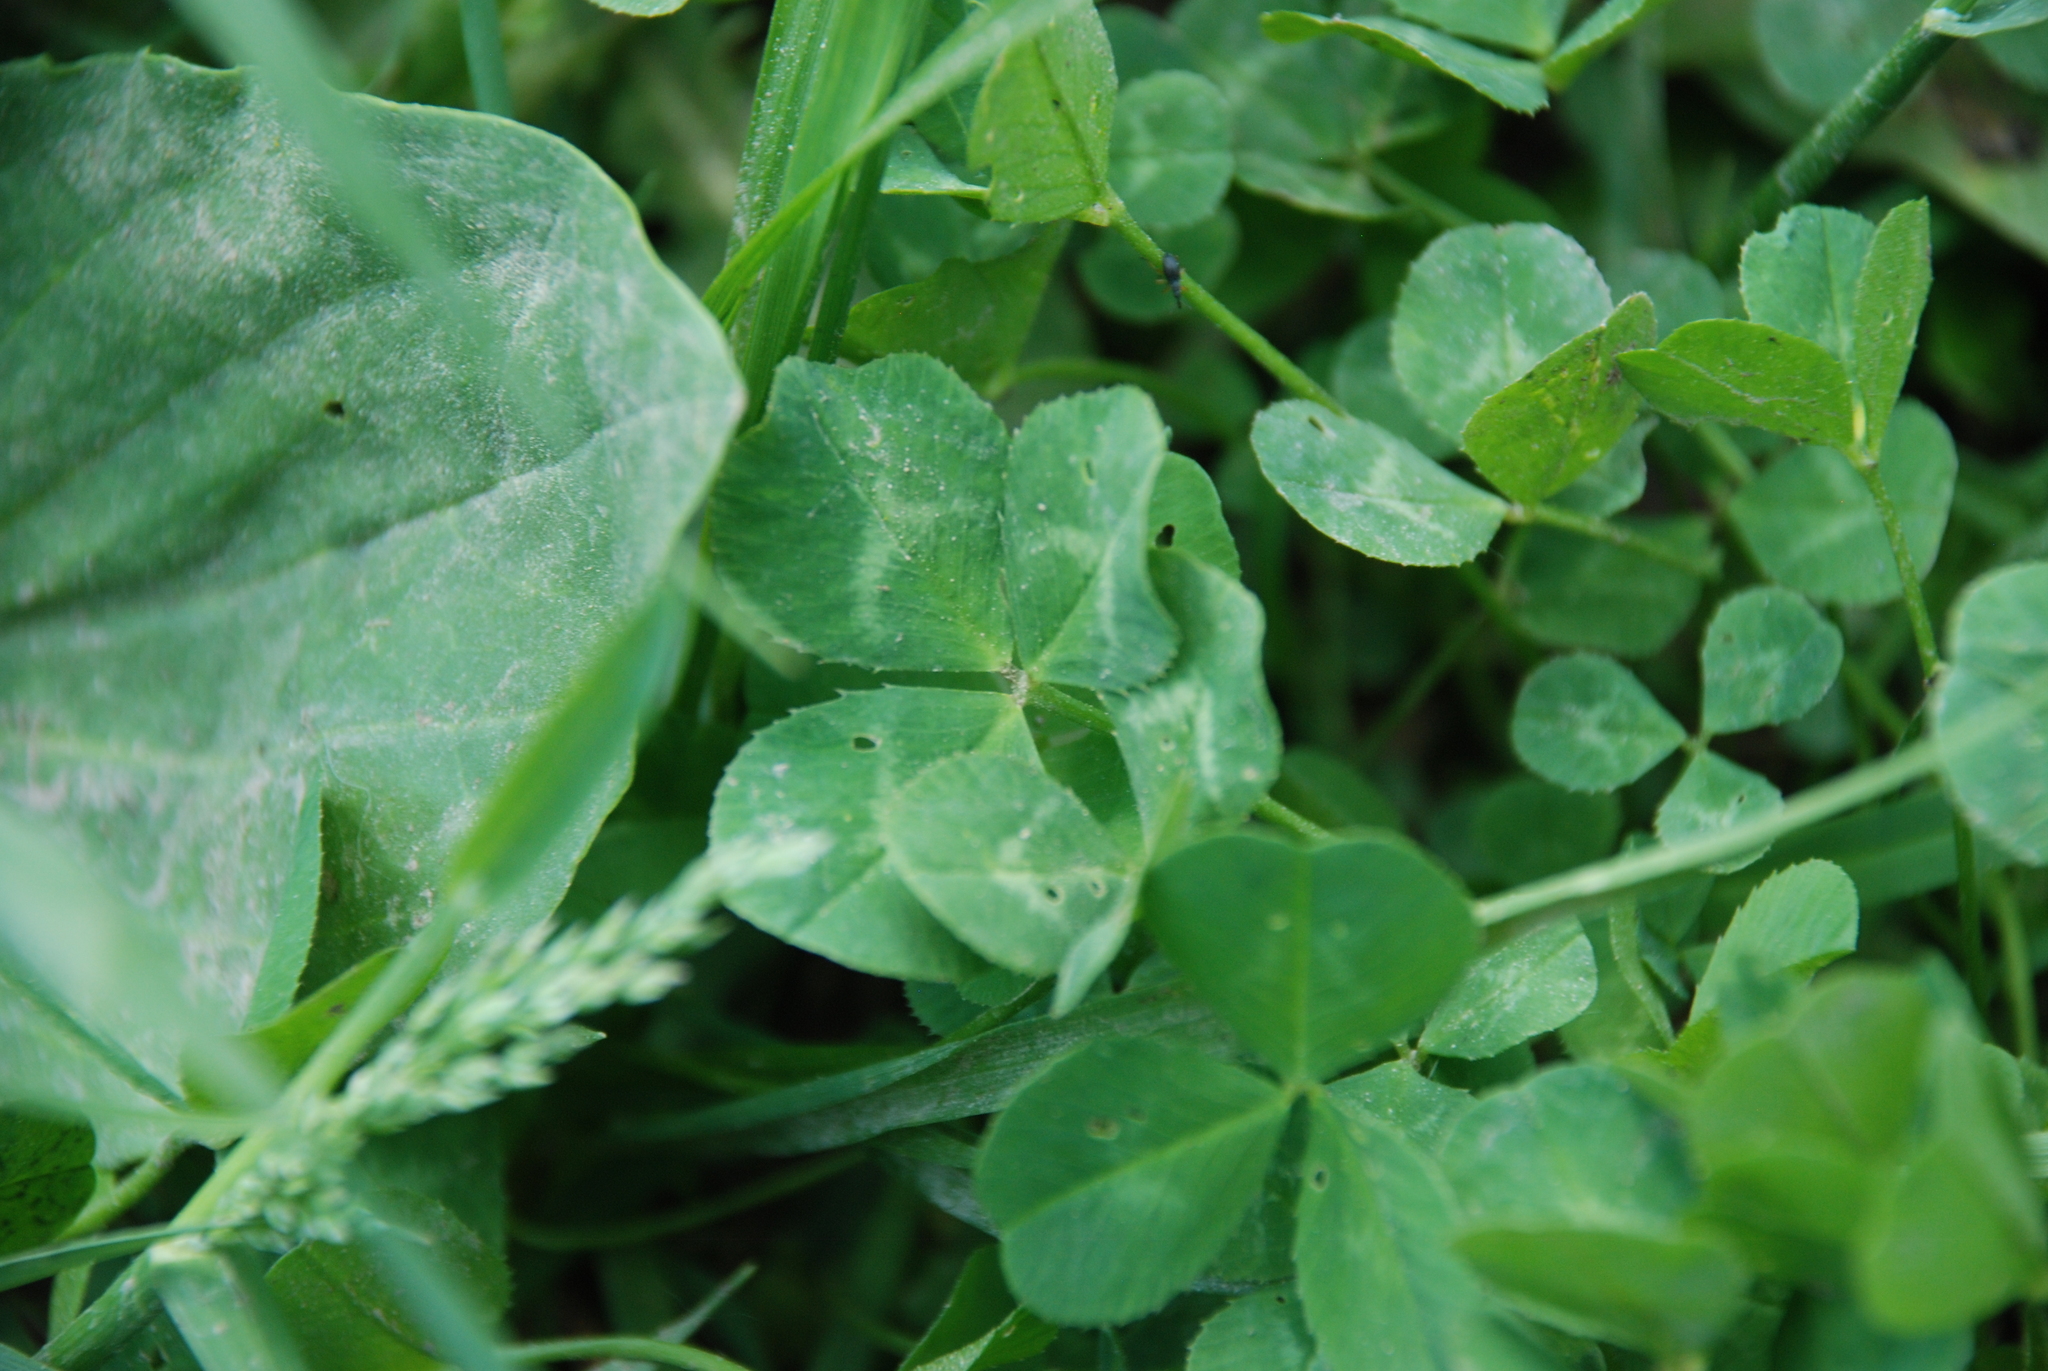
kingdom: Plantae
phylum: Tracheophyta
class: Magnoliopsida
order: Fabales
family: Fabaceae
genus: Trifolium
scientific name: Trifolium repens
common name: White clover
